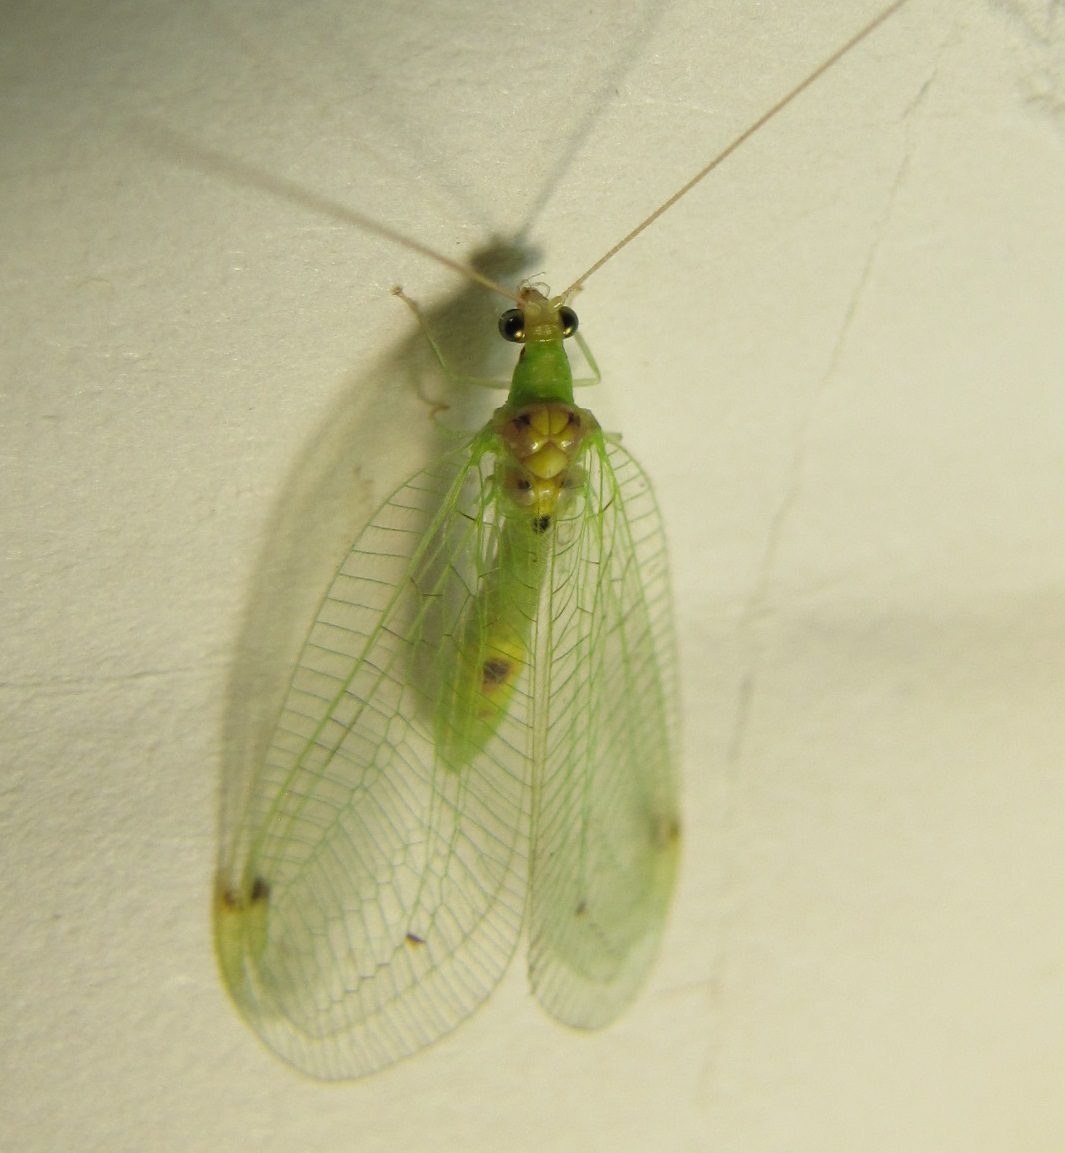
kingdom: Animalia
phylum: Arthropoda
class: Insecta
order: Neuroptera
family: Chrysopidae
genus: Leucochrysa
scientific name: Leucochrysa insularis
